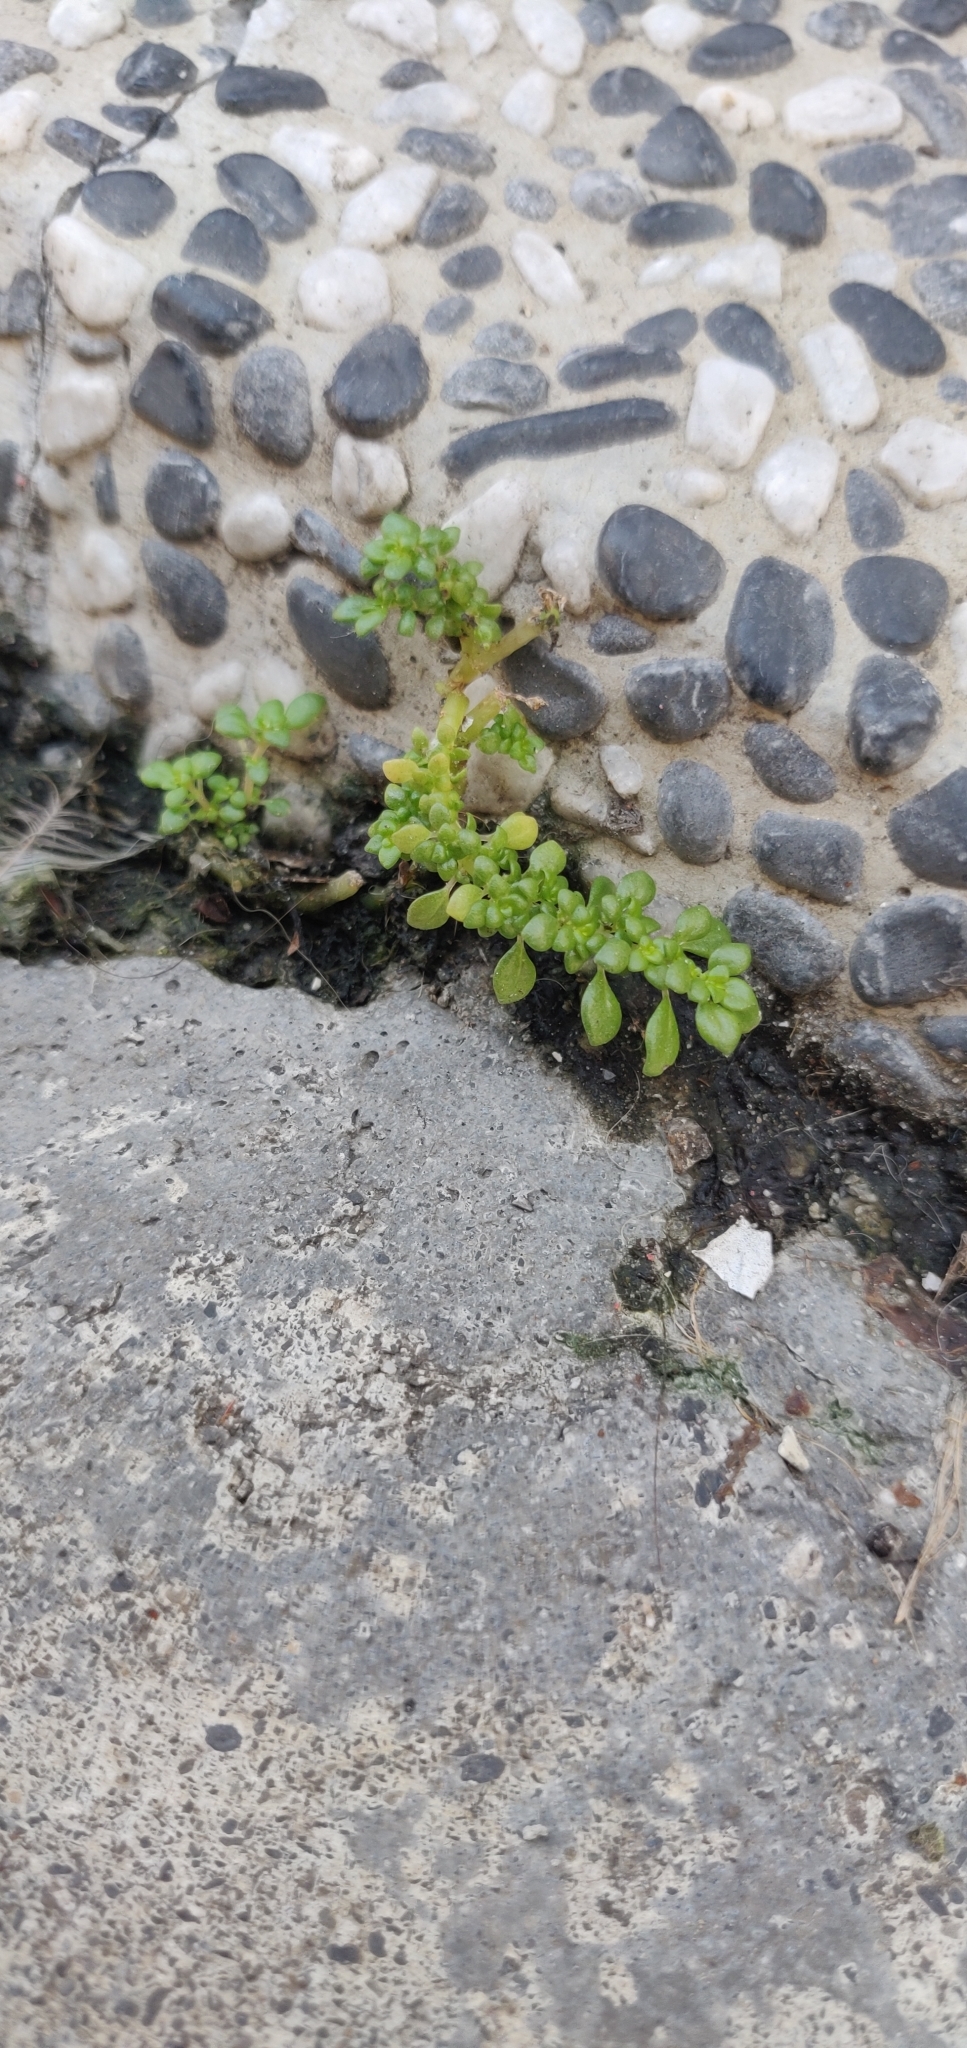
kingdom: Plantae
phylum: Tracheophyta
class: Magnoliopsida
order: Rosales
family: Urticaceae
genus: Pilea
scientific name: Pilea microphylla
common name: Artillery-plant
